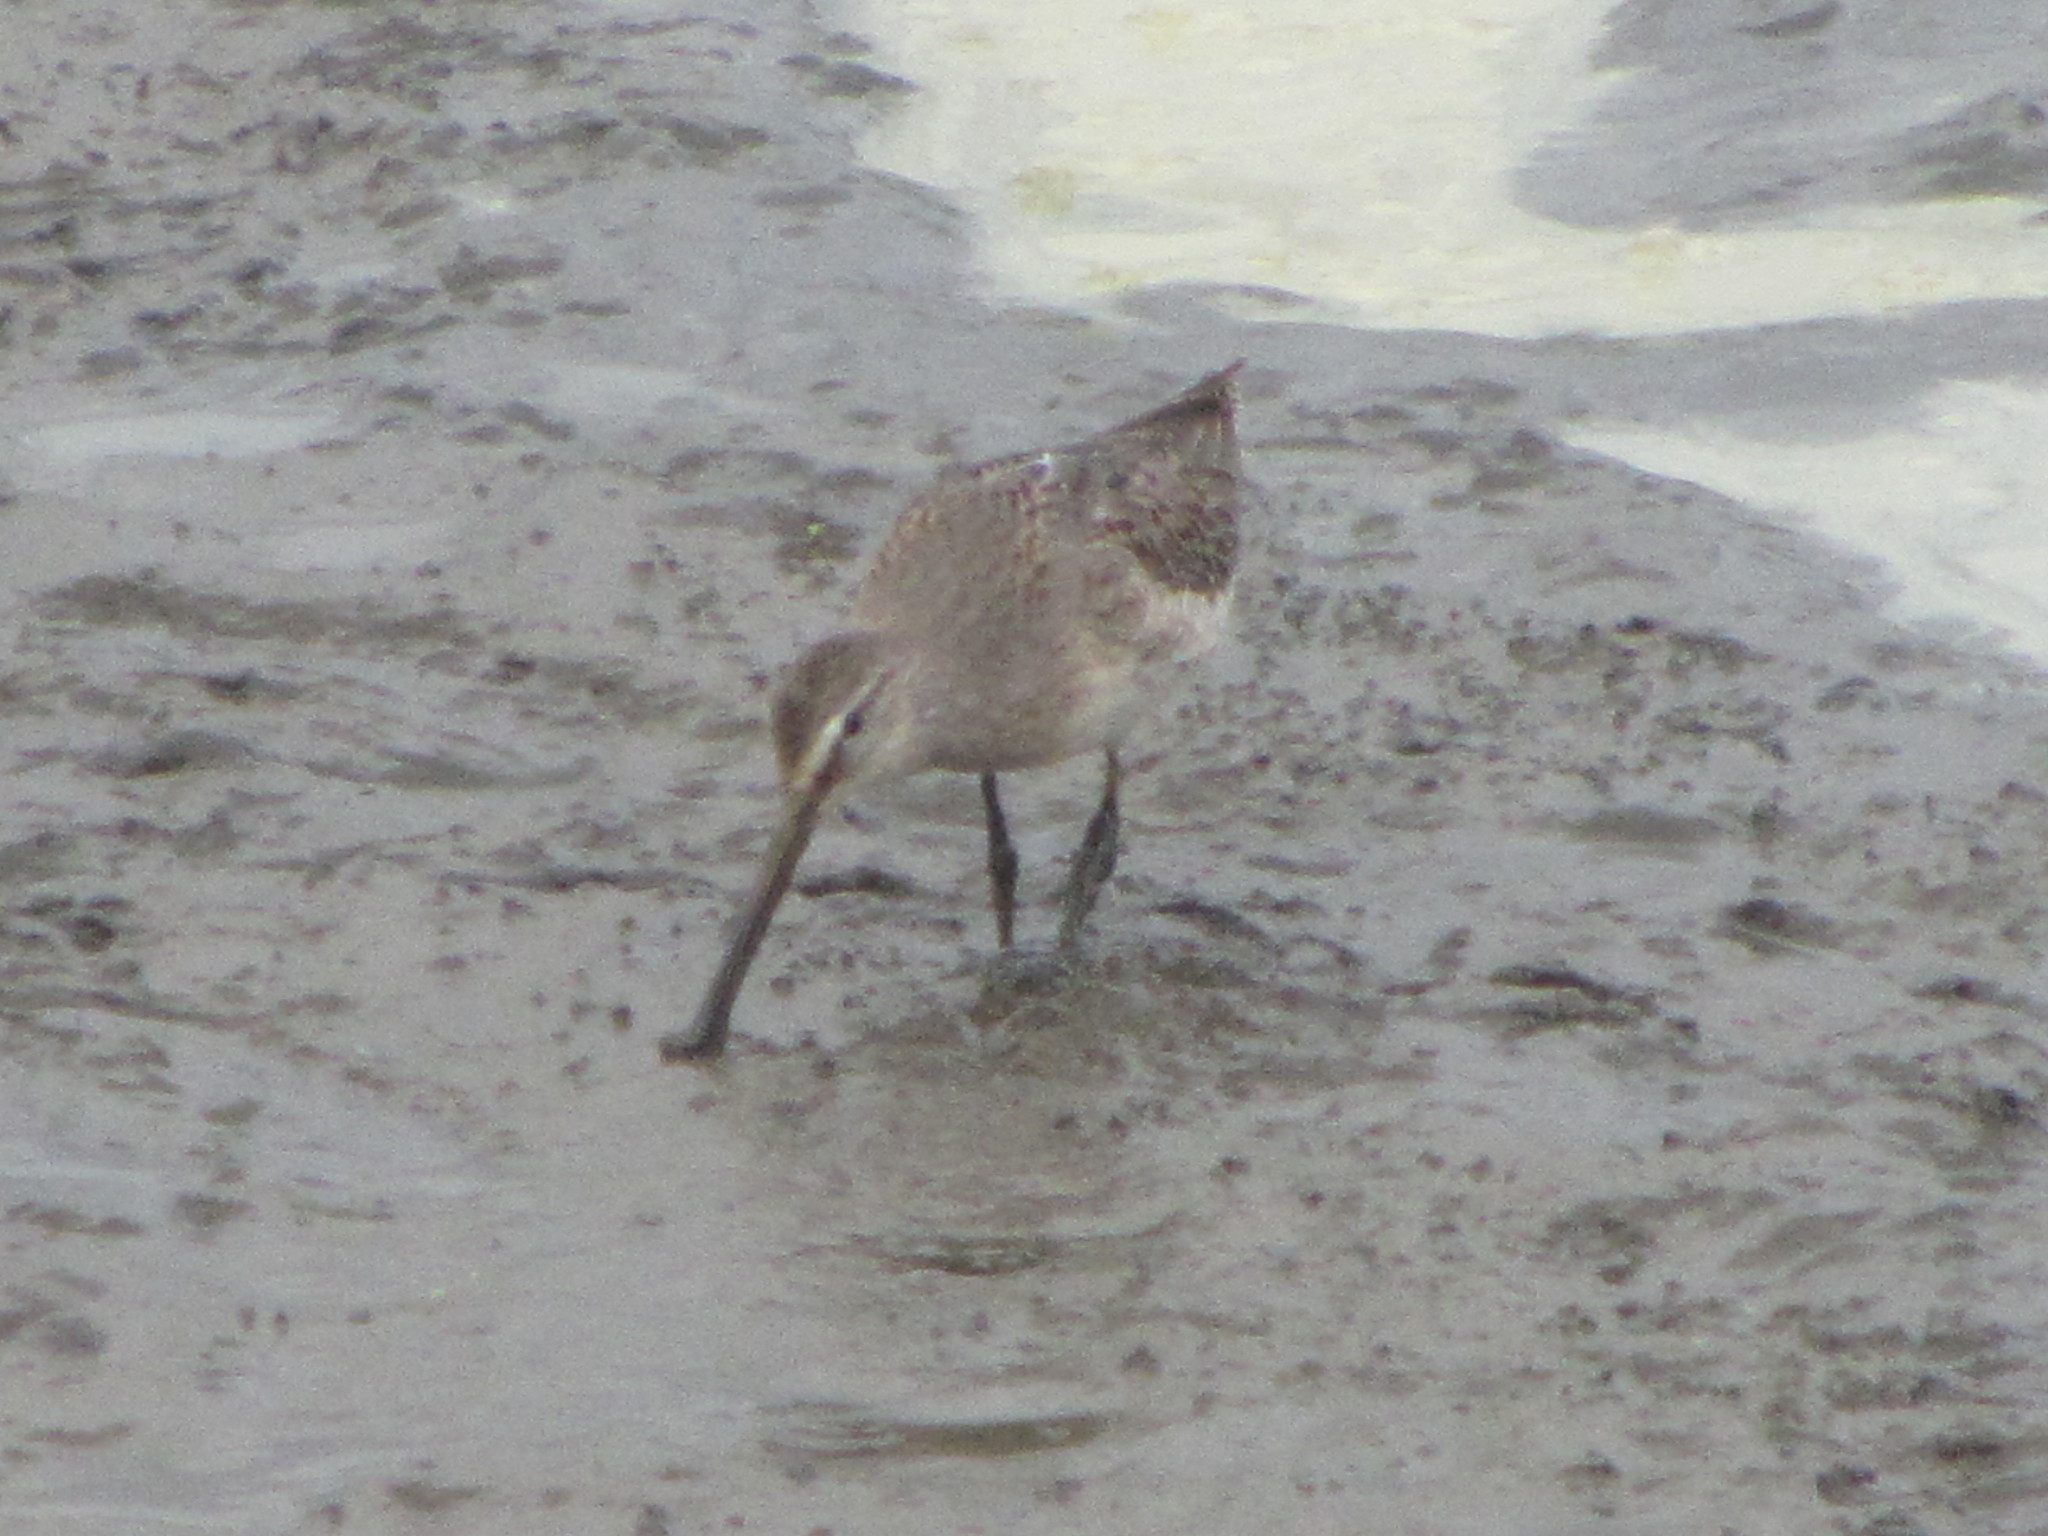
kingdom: Animalia
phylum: Chordata
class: Aves
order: Charadriiformes
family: Scolopacidae
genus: Limnodromus
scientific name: Limnodromus scolopaceus
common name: Long-billed dowitcher
